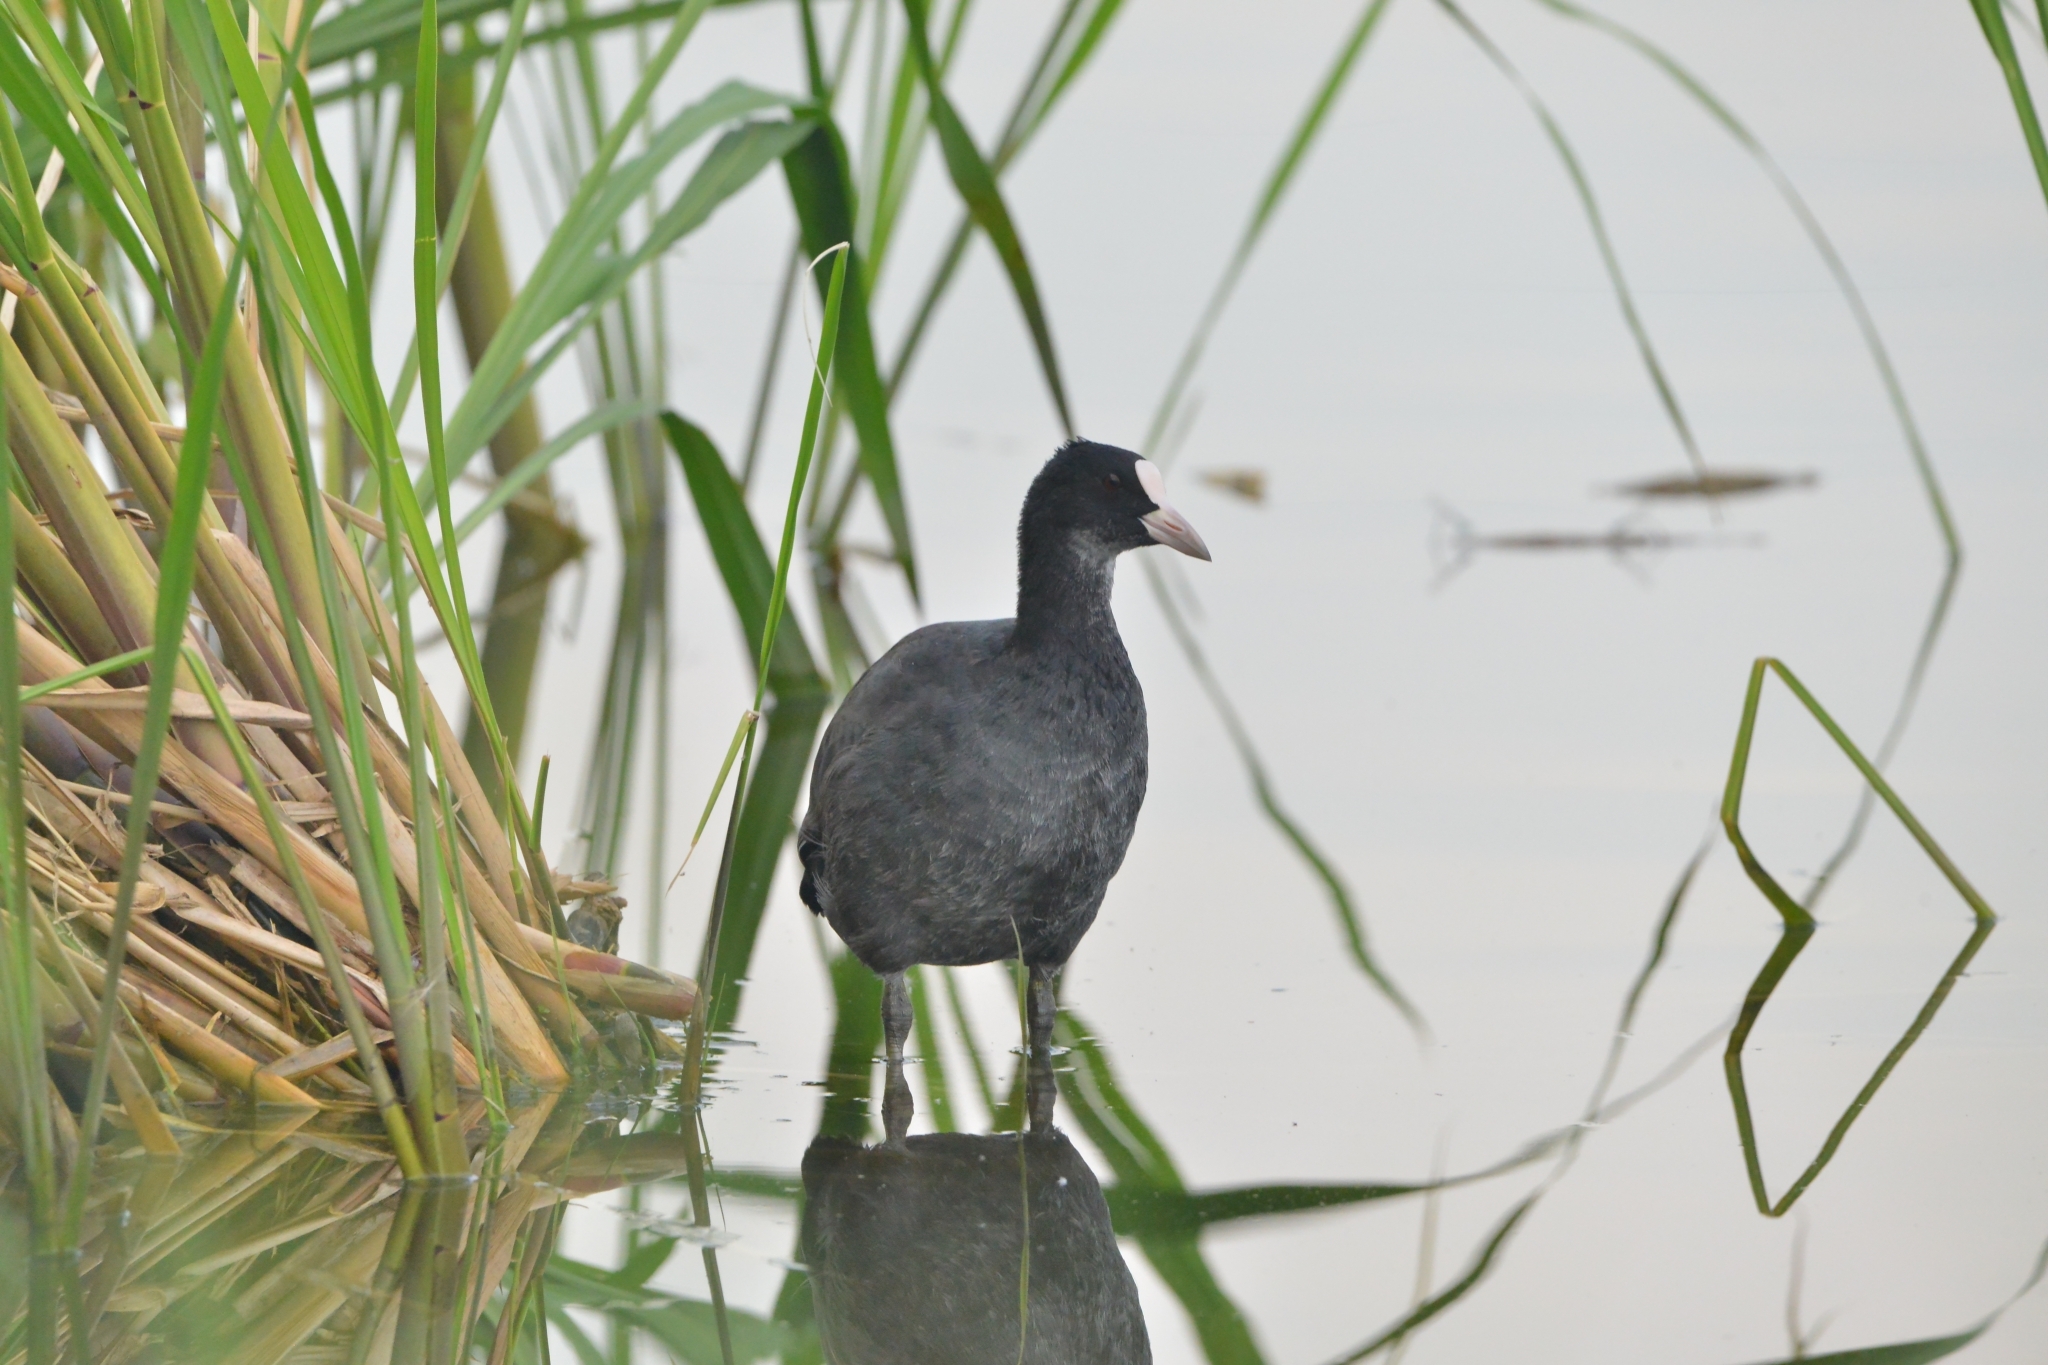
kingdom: Animalia
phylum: Chordata
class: Aves
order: Gruiformes
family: Rallidae
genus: Fulica
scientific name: Fulica atra
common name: Eurasian coot
